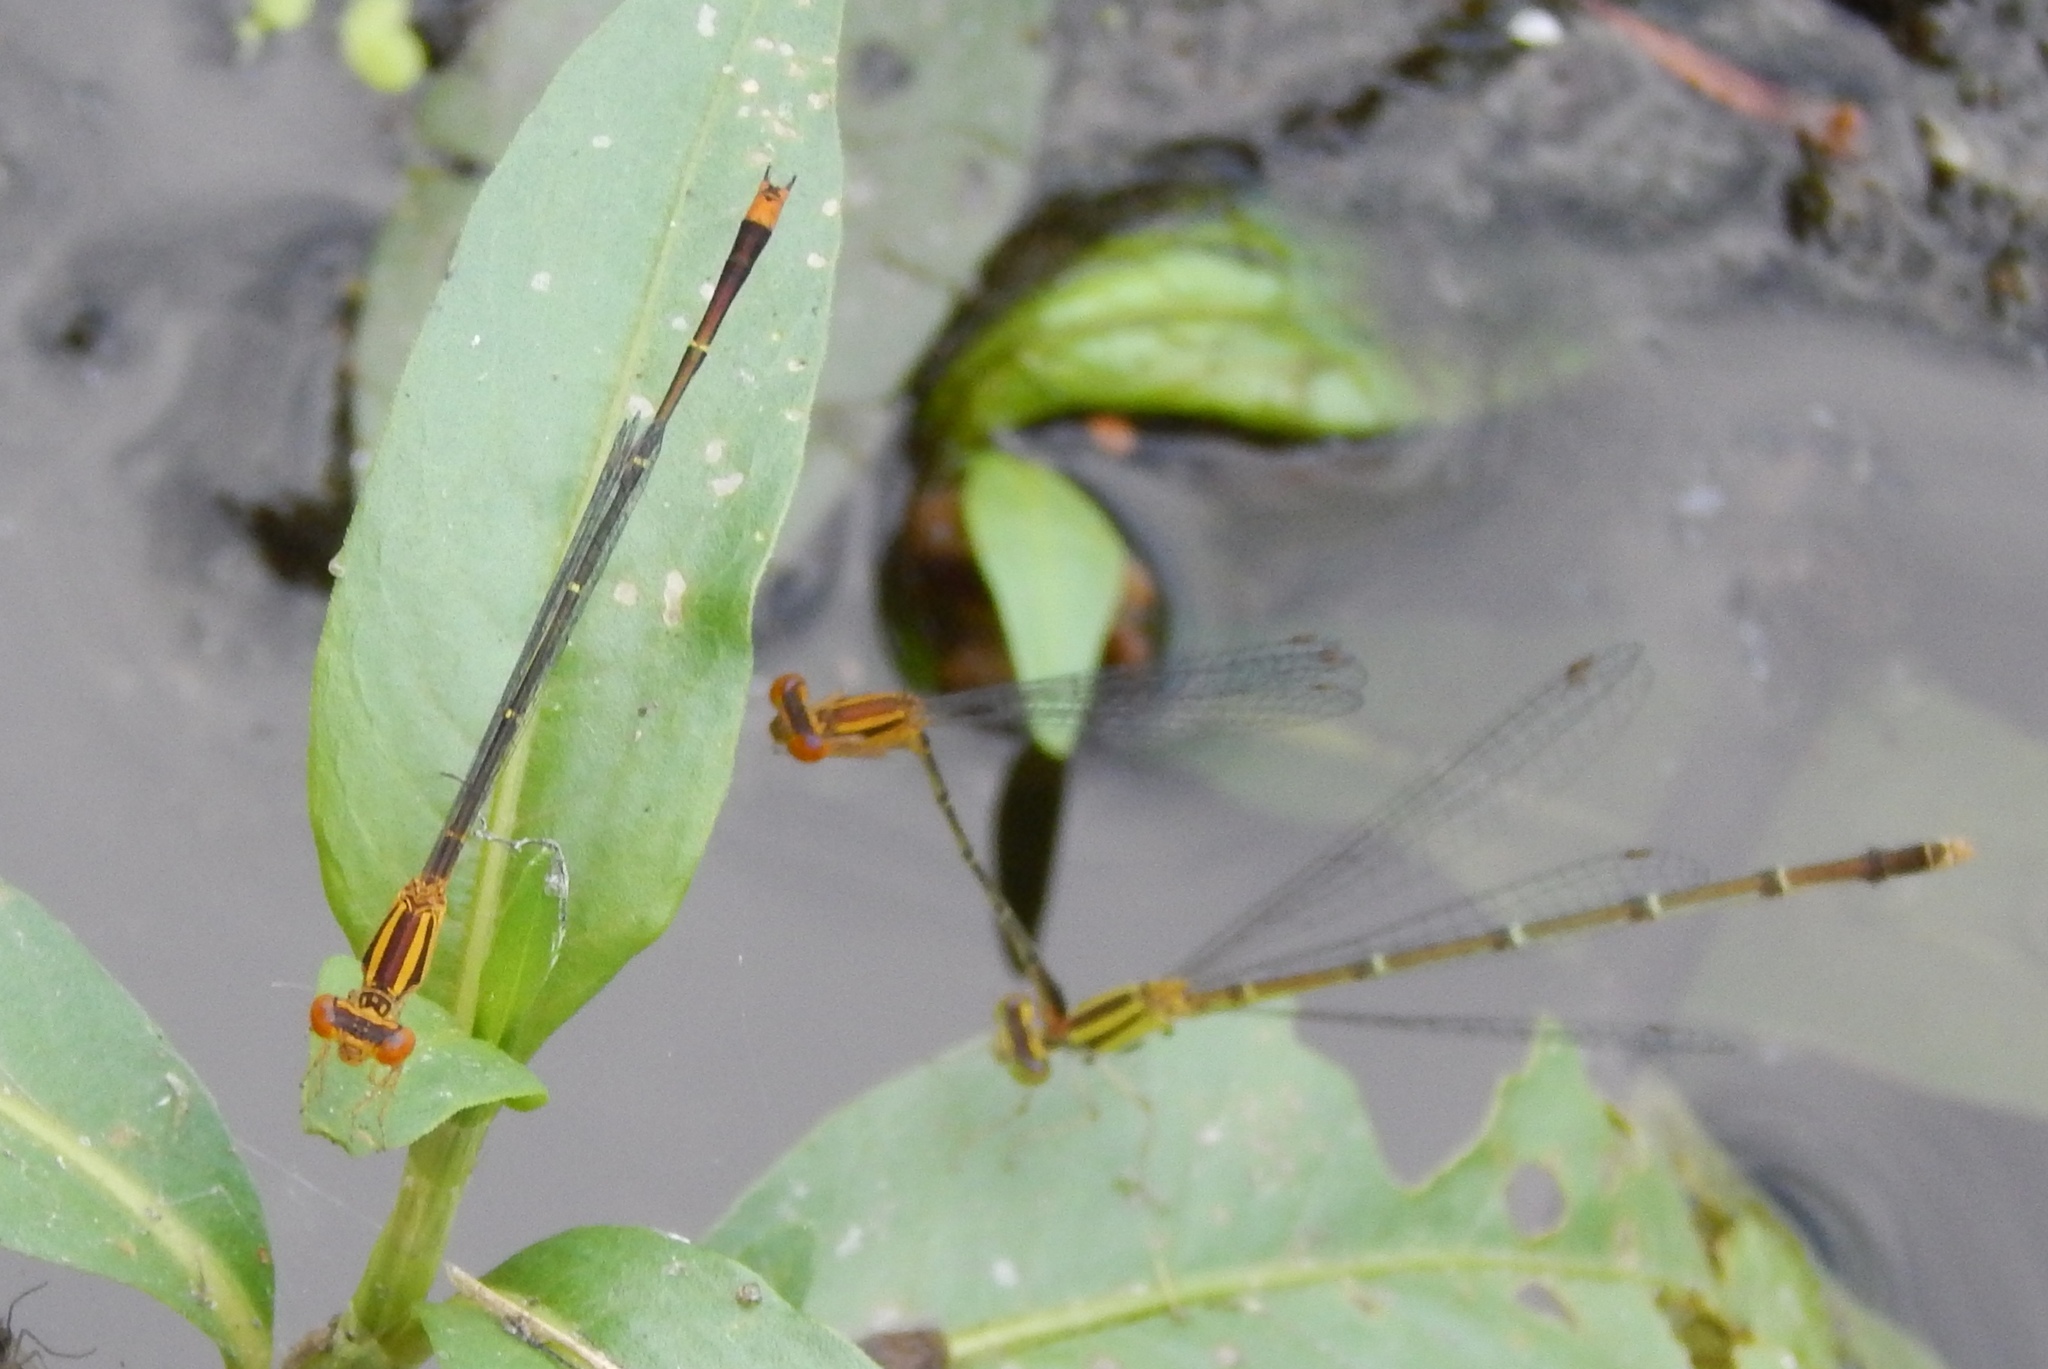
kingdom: Animalia
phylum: Arthropoda
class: Insecta
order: Odonata
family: Coenagrionidae
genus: Enallagma
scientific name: Enallagma signatum
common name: Orange bluet
